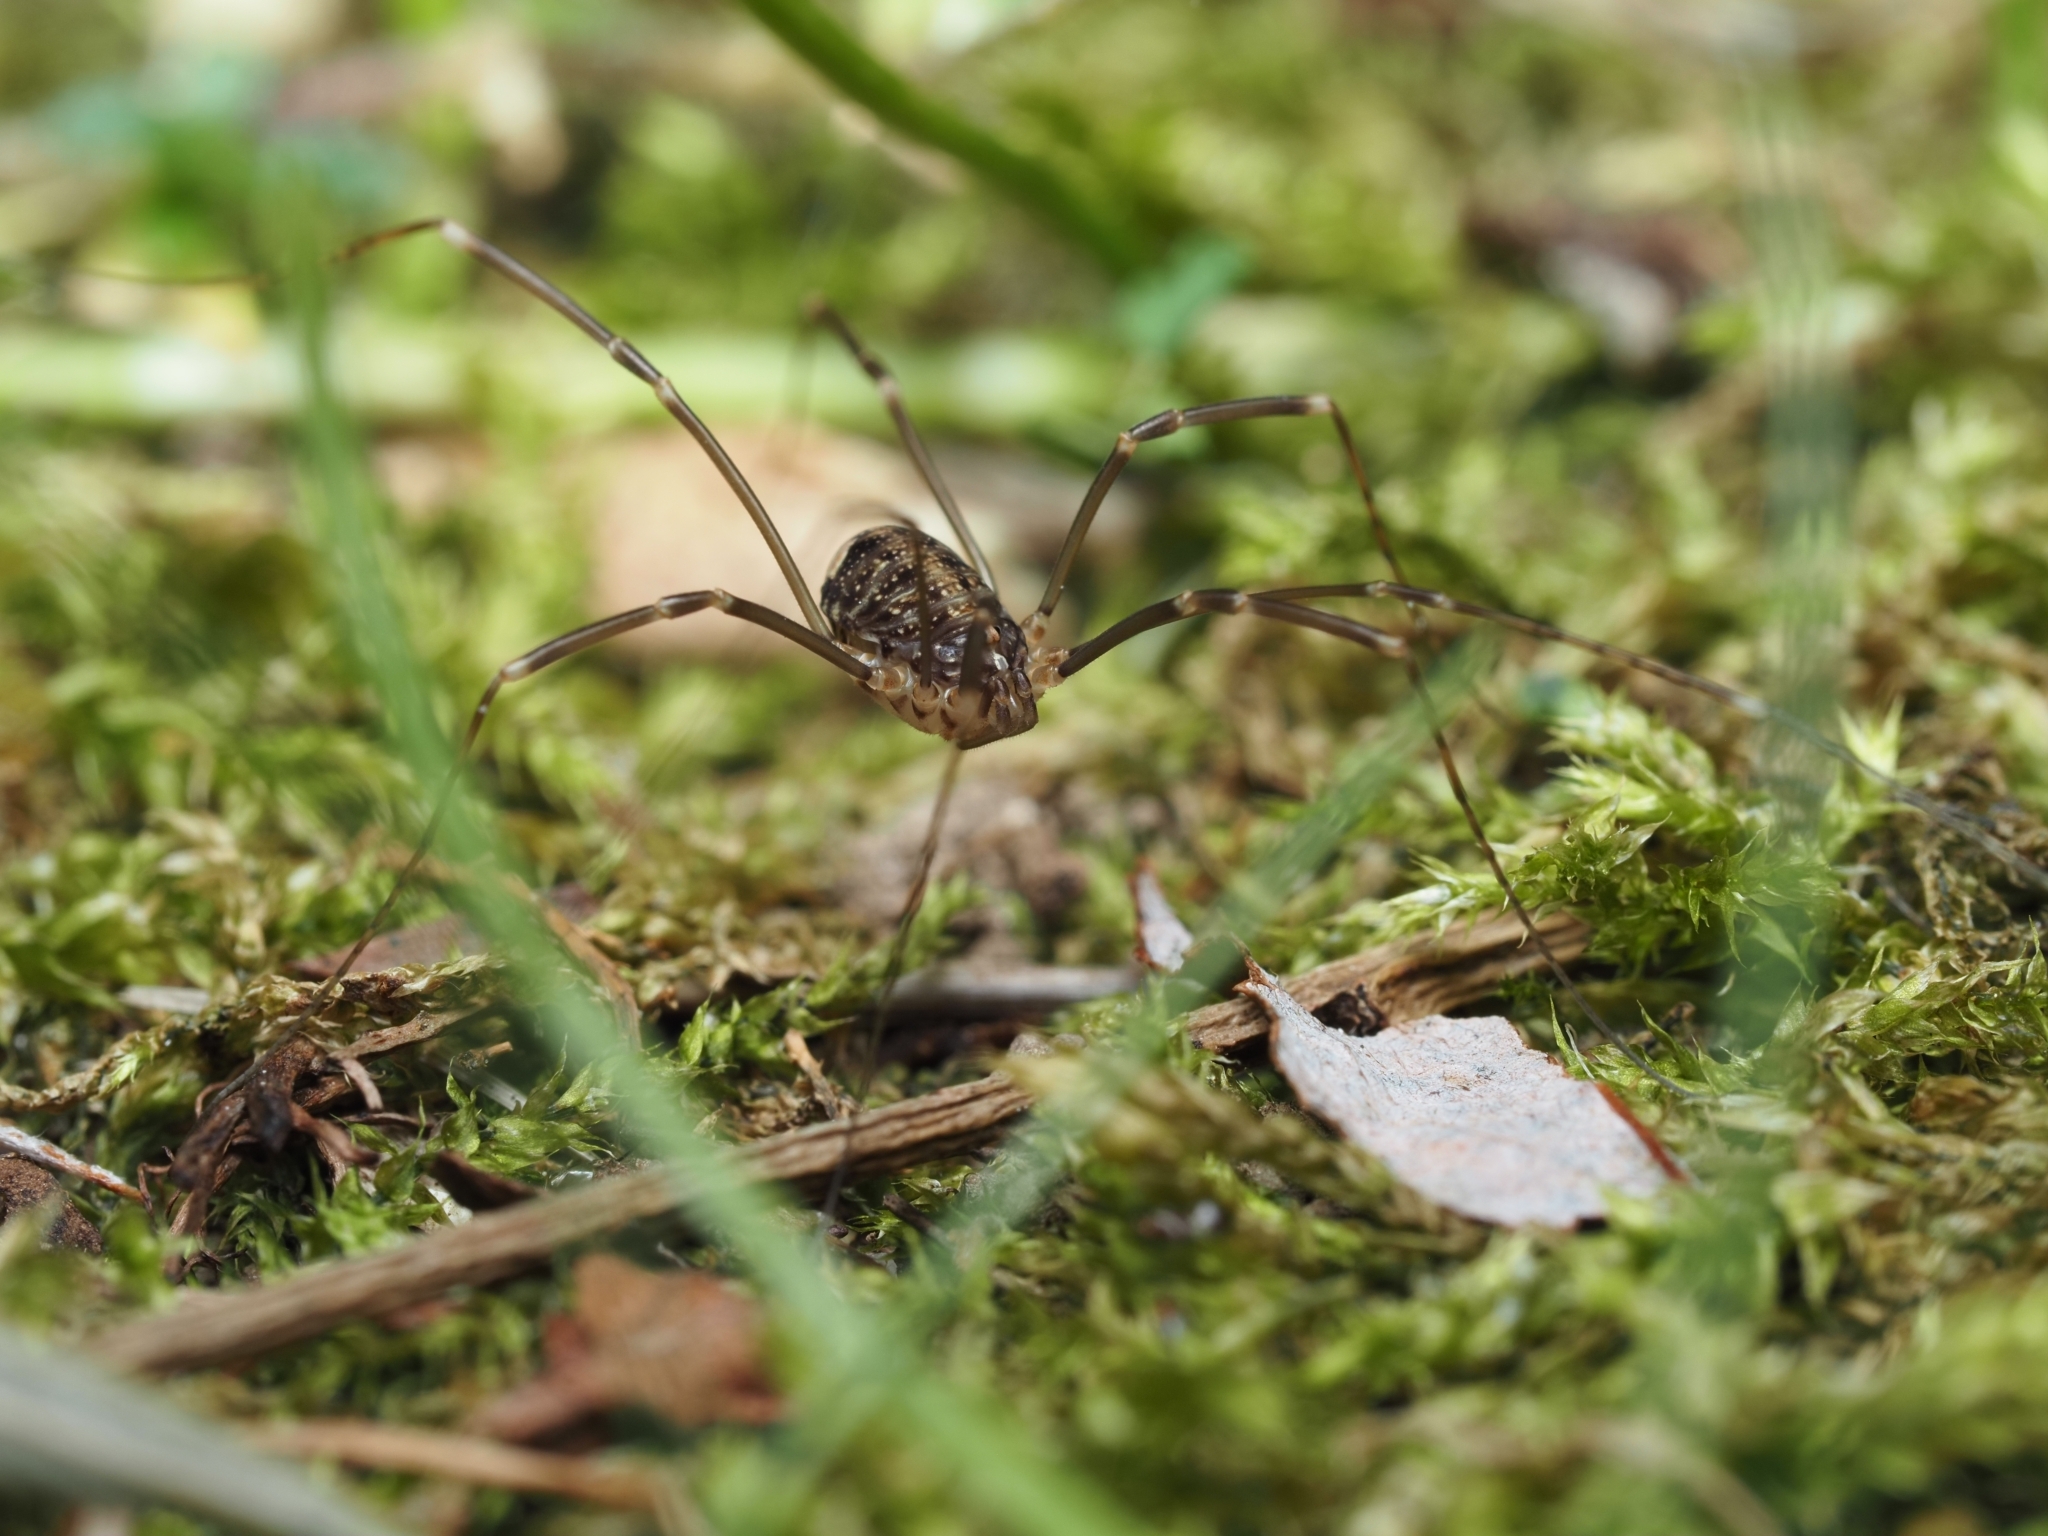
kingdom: Animalia
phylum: Arthropoda
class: Arachnida
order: Opiliones
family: Sclerosomatidae
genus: Nelima
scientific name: Nelima sempronii
